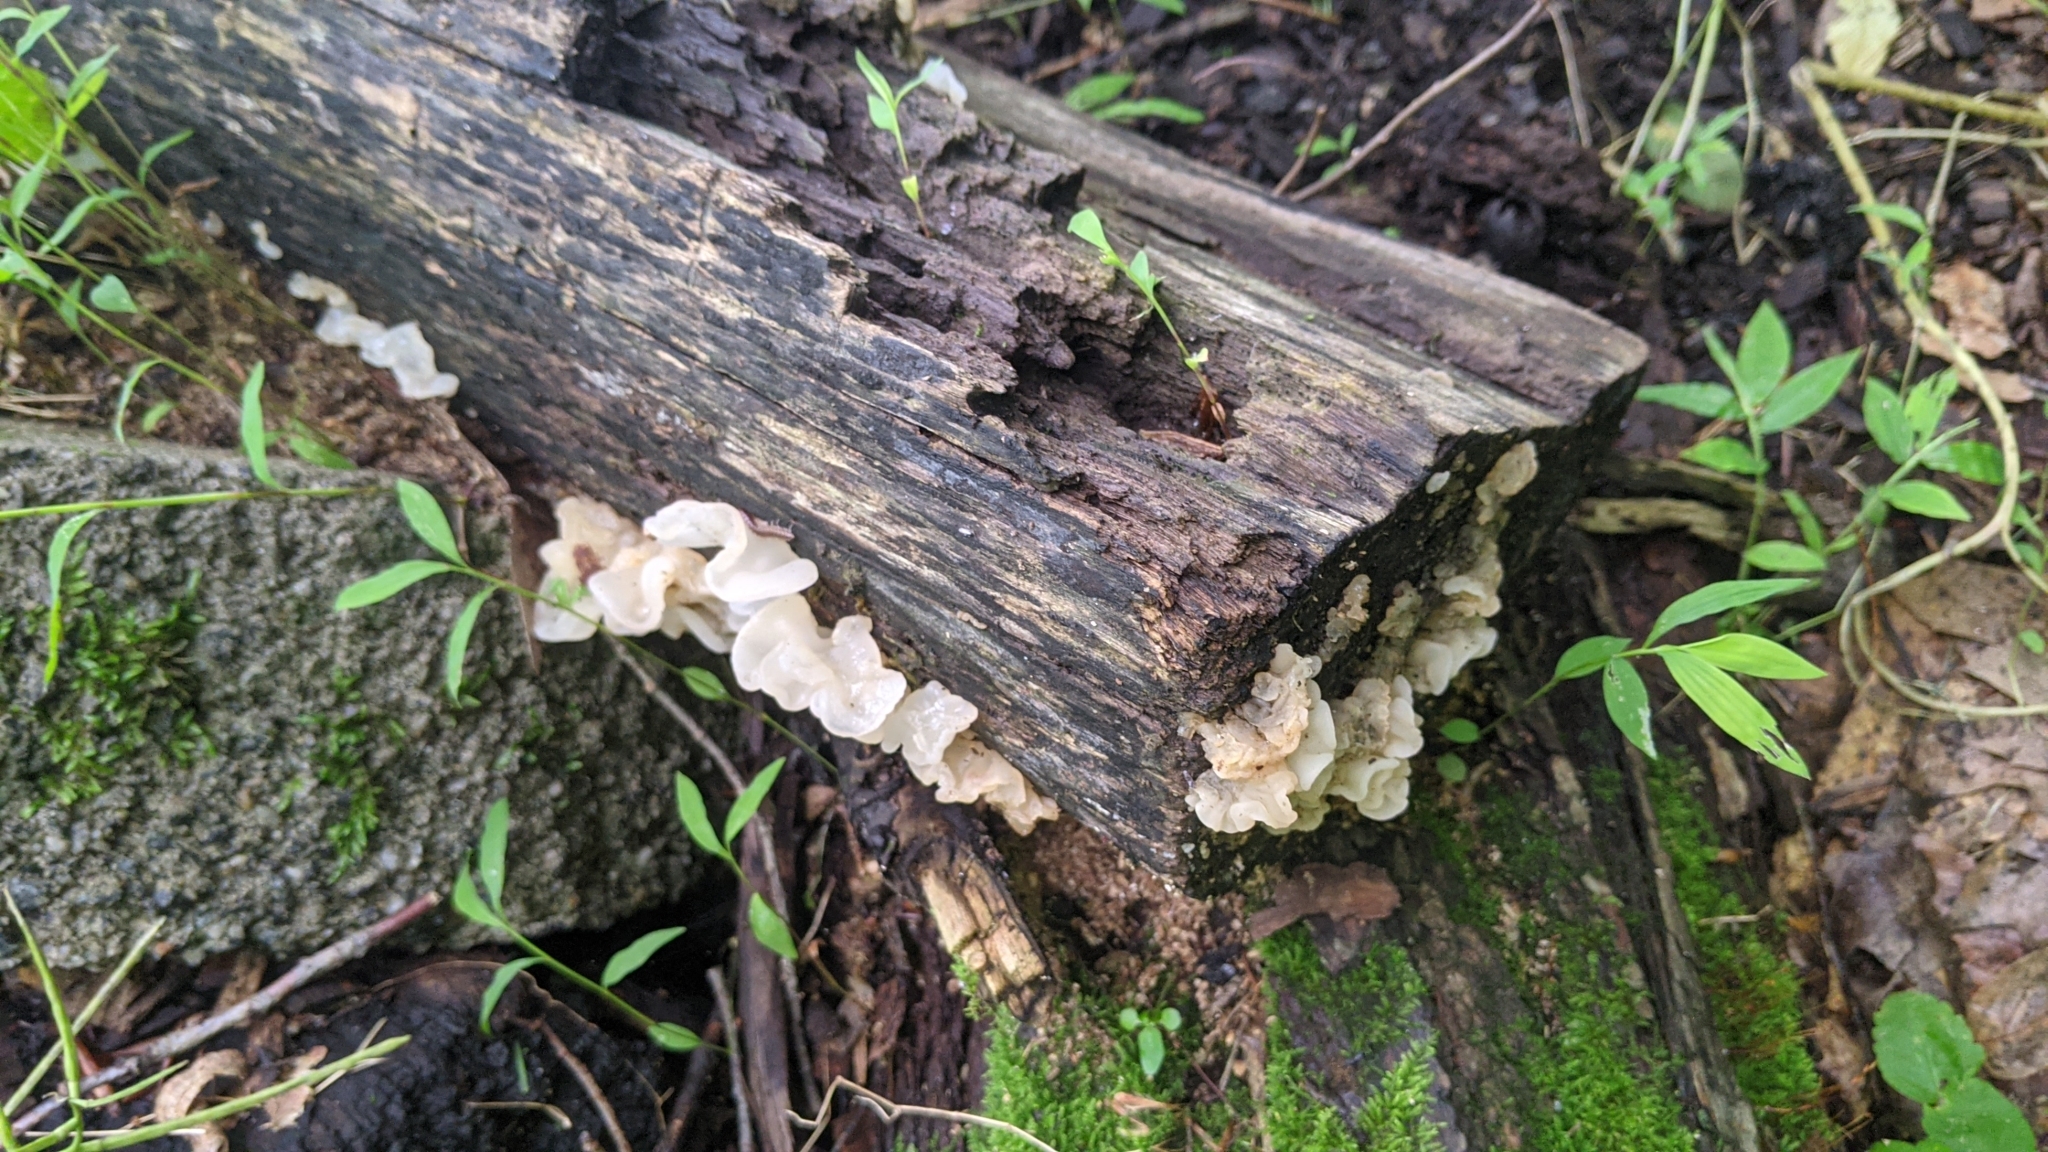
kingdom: Fungi
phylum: Basidiomycota
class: Agaricomycetes
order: Auriculariales
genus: Ductifera
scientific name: Ductifera pululahuana
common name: White jelly fungus
